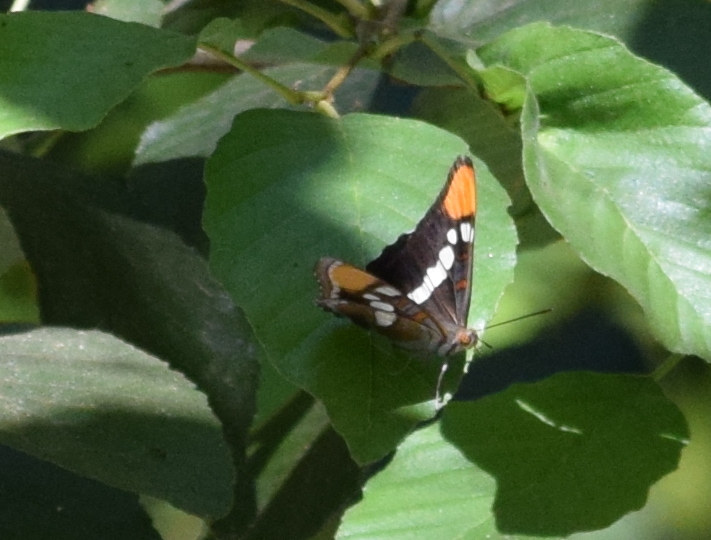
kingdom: Animalia
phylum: Arthropoda
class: Insecta
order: Lepidoptera
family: Nymphalidae
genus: Limenitis
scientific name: Limenitis bredowii
